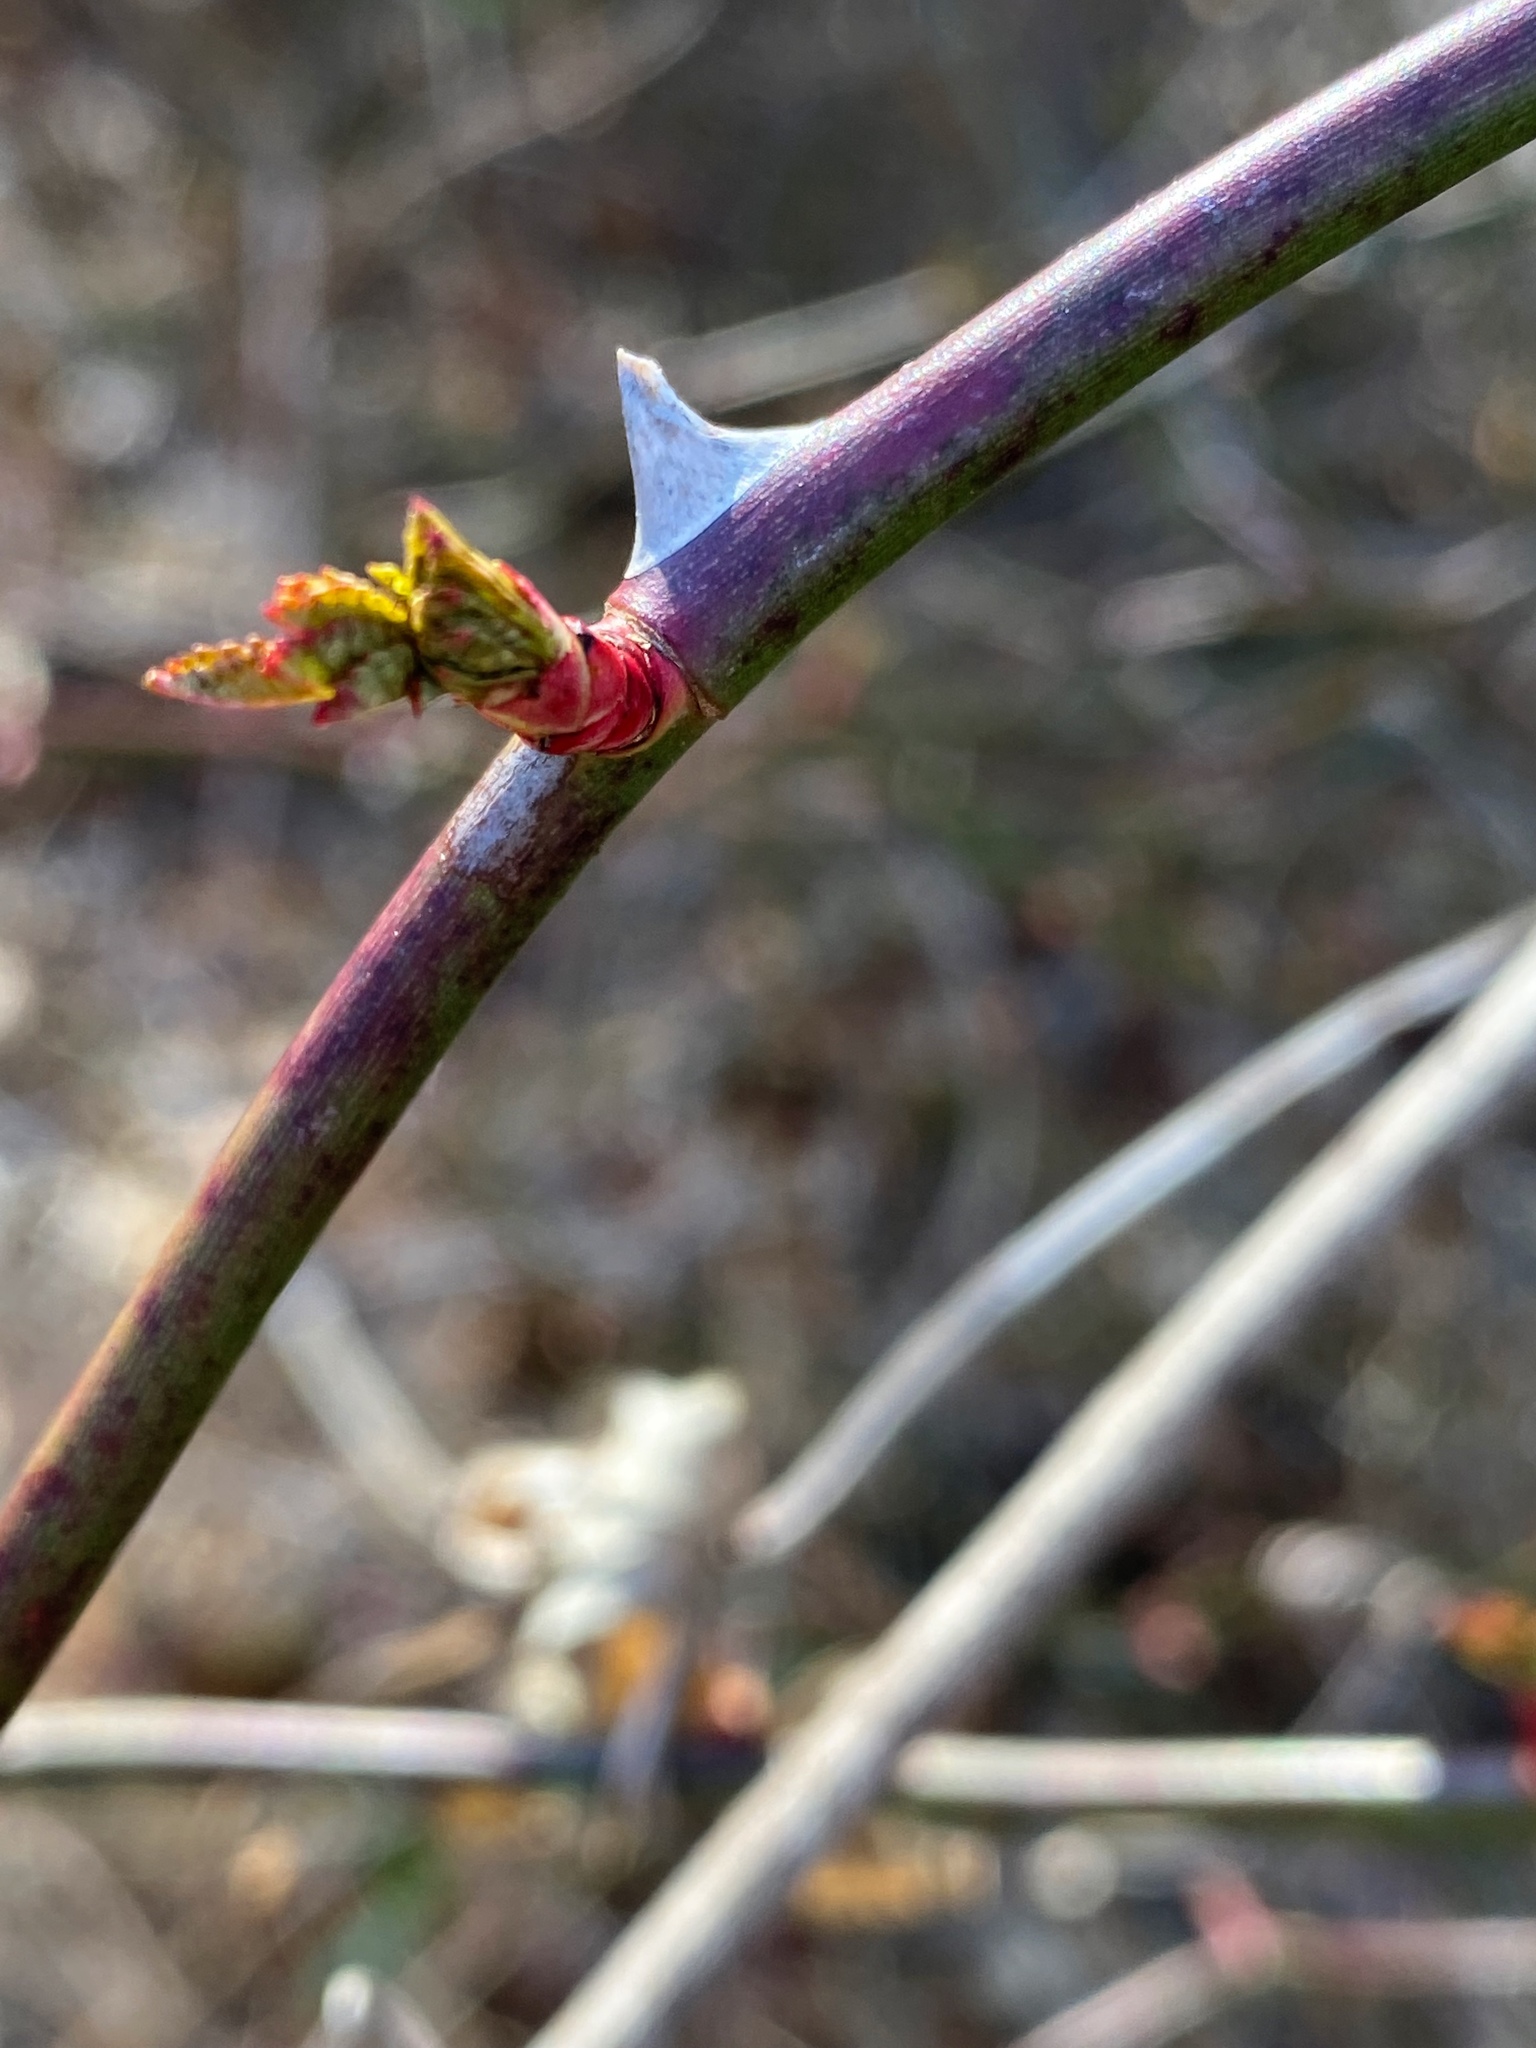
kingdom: Plantae
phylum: Tracheophyta
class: Magnoliopsida
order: Rosales
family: Rosaceae
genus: Rosa
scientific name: Rosa multiflora
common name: Multiflora rose
